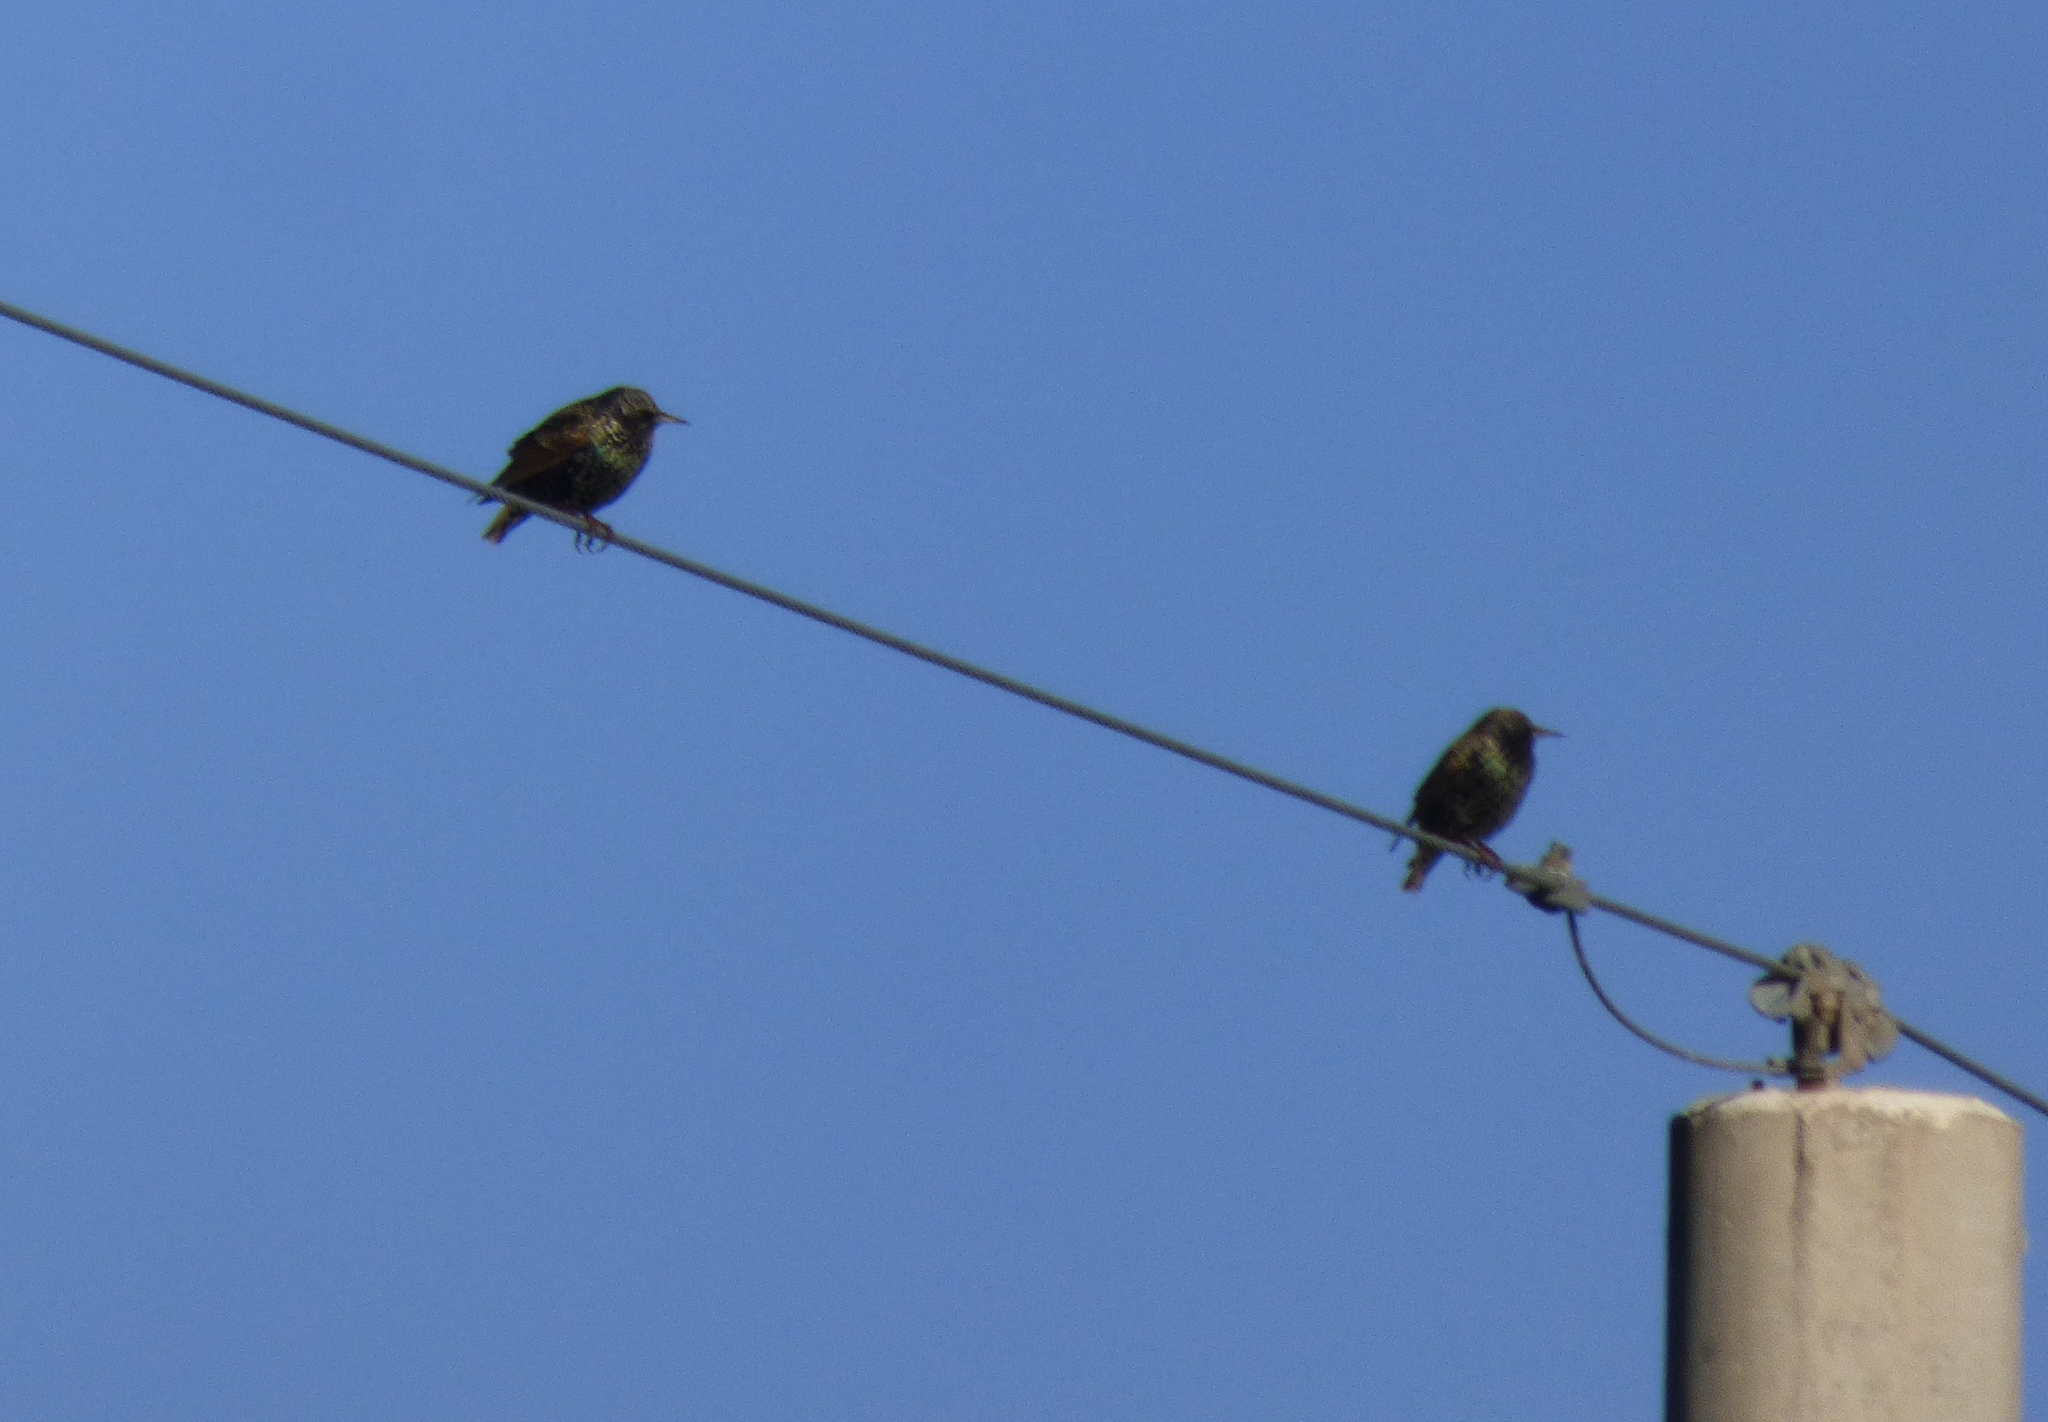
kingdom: Animalia
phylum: Chordata
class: Aves
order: Passeriformes
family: Sturnidae
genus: Sturnus
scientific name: Sturnus vulgaris
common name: Common starling
